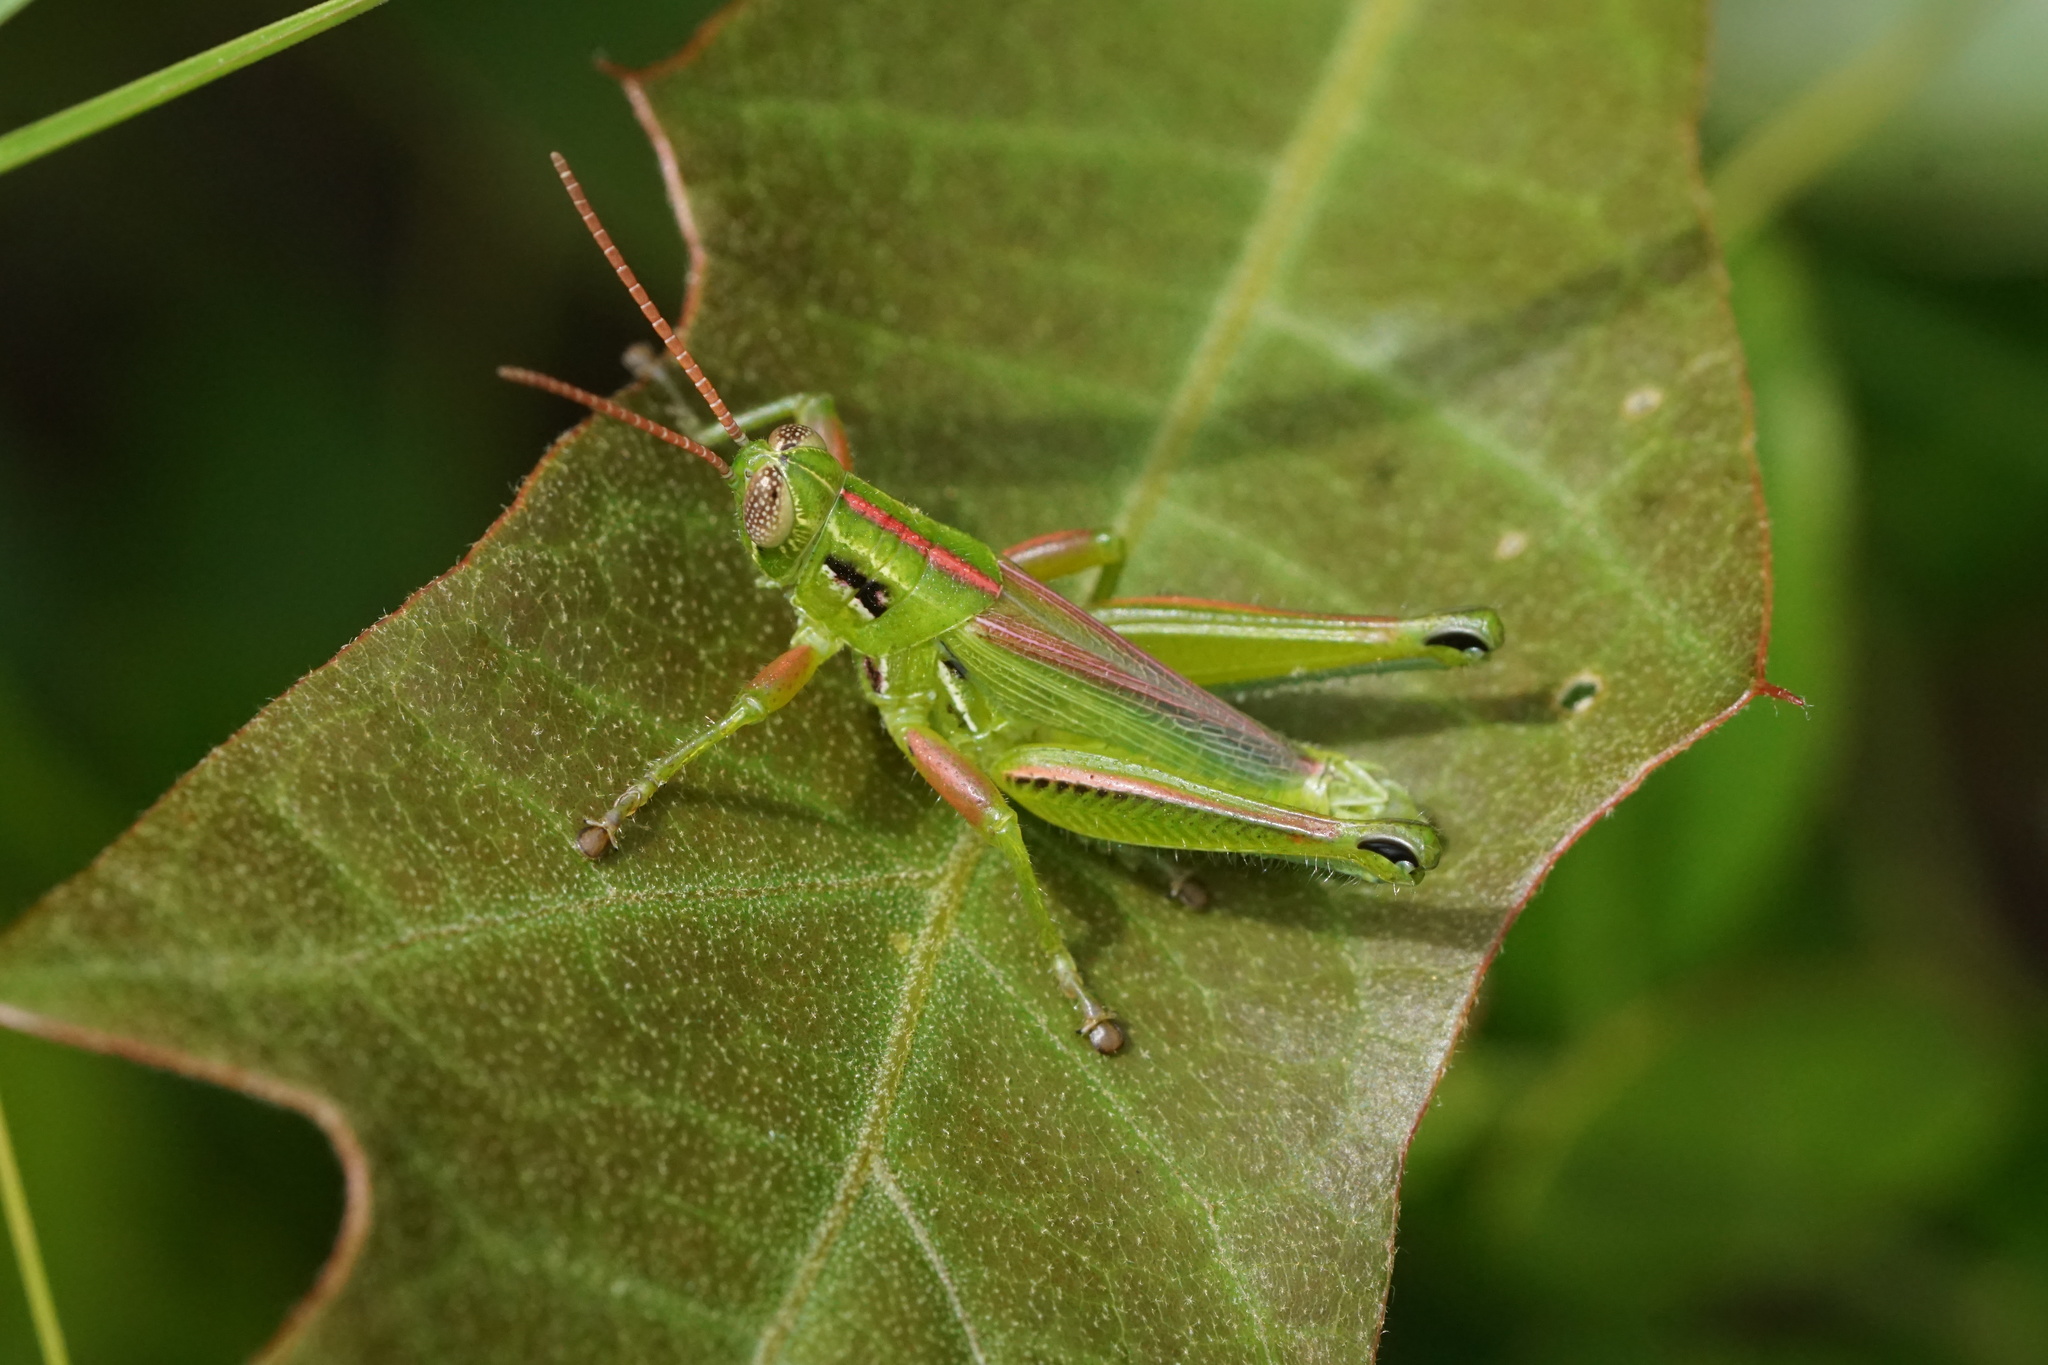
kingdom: Animalia
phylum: Arthropoda
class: Insecta
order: Orthoptera
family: Acrididae
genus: Hesperotettix
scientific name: Hesperotettix viridis
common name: Meadow purple-striped grasshopper
